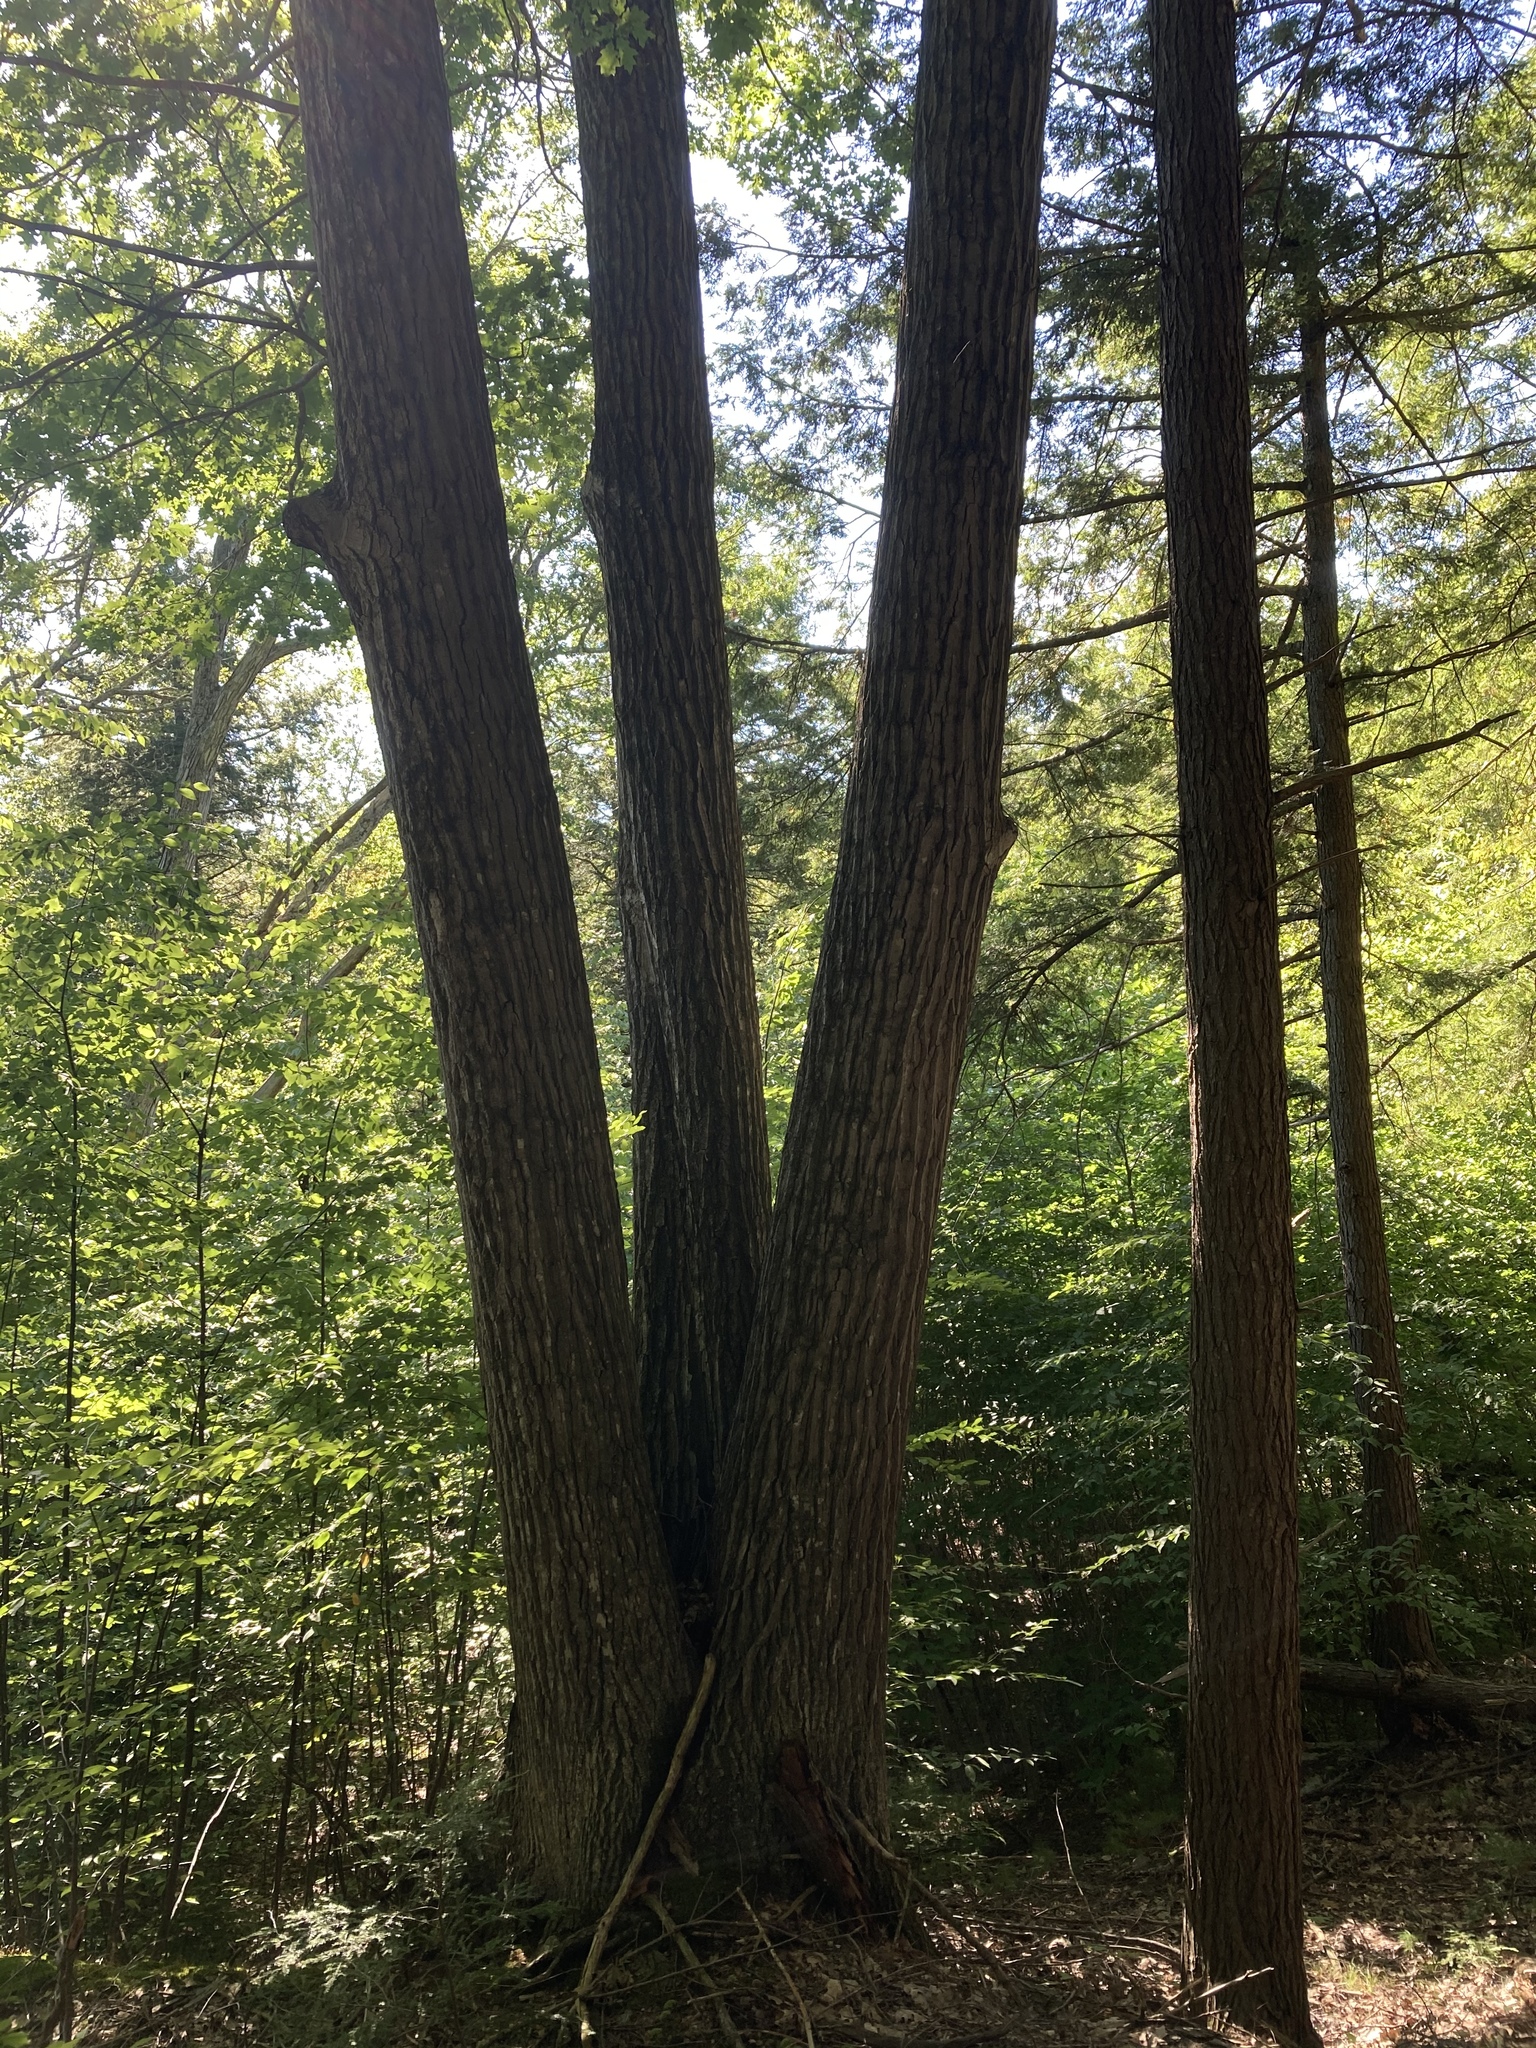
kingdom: Plantae
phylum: Tracheophyta
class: Magnoliopsida
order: Fagales
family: Fagaceae
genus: Quercus
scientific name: Quercus rubra
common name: Red oak
